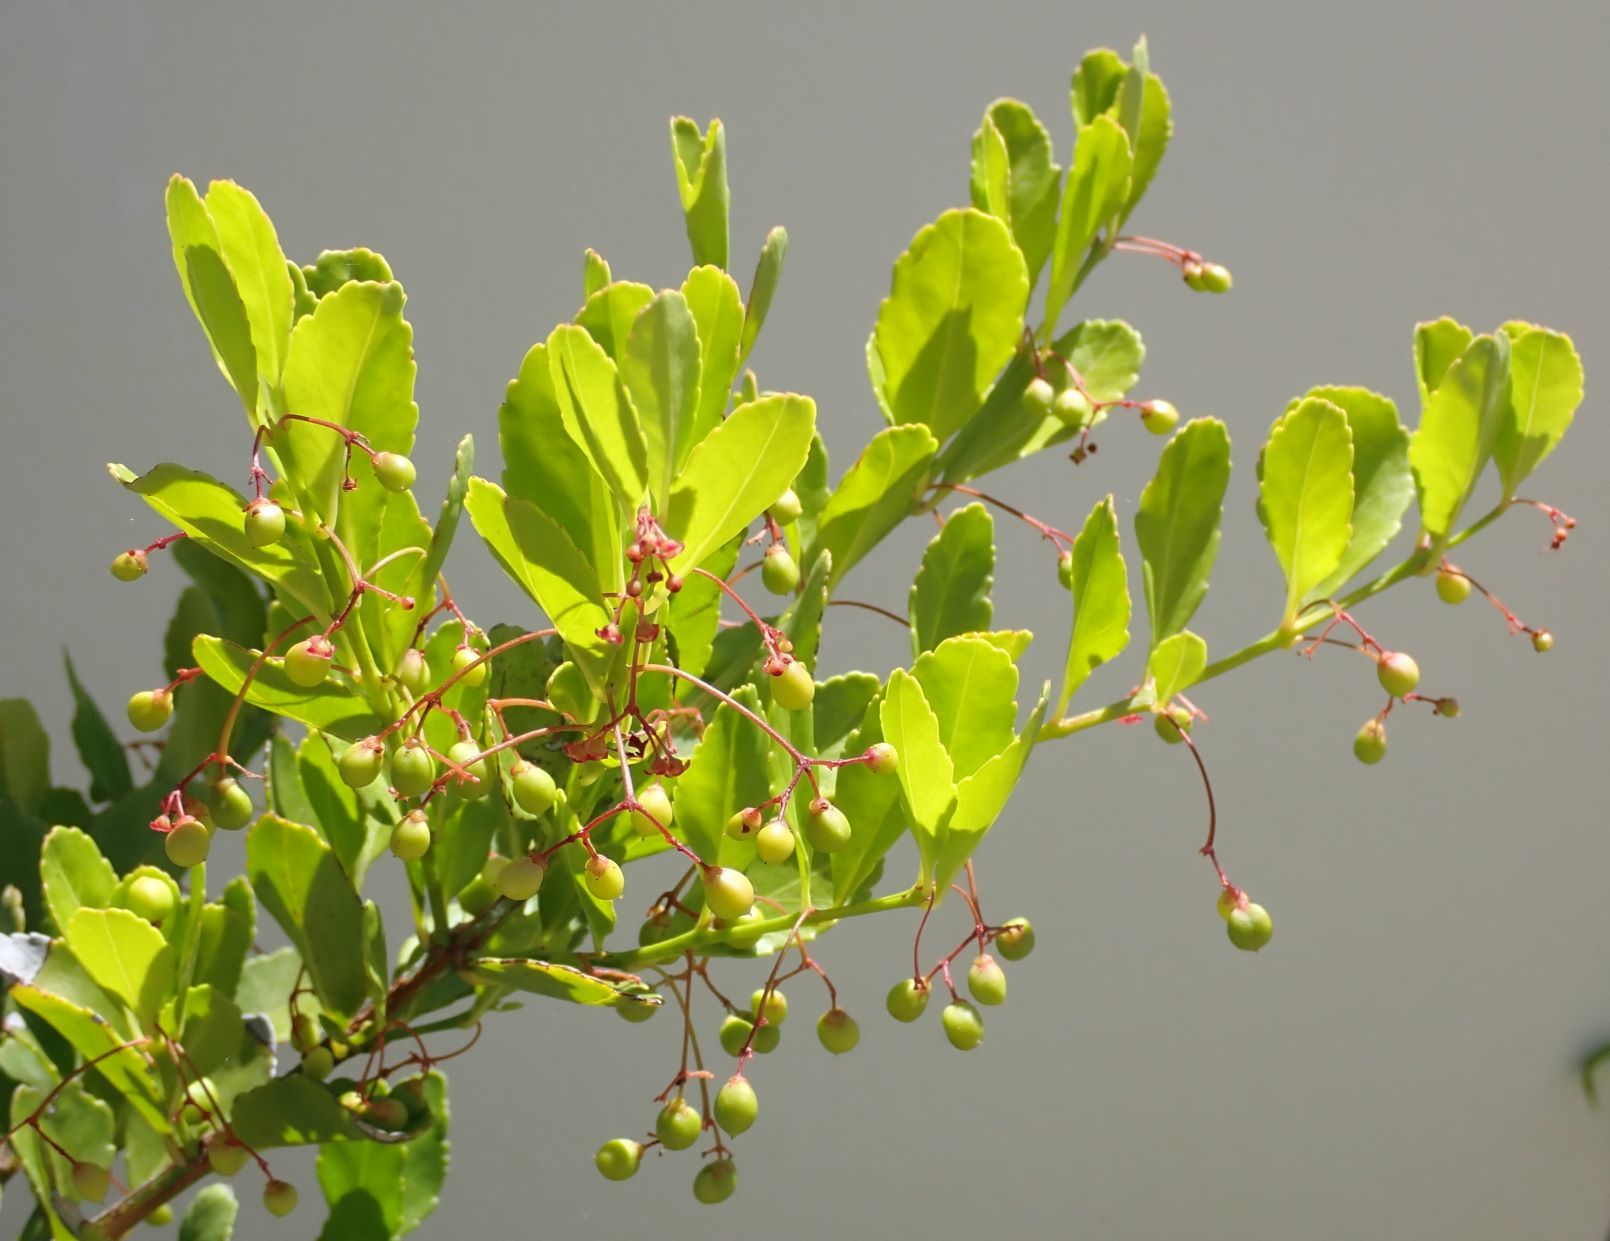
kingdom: Plantae
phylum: Tracheophyta
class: Magnoliopsida
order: Celastrales
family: Celastraceae
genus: Crossopetalum
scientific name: Crossopetalum rhacoma
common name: Maidenberry
